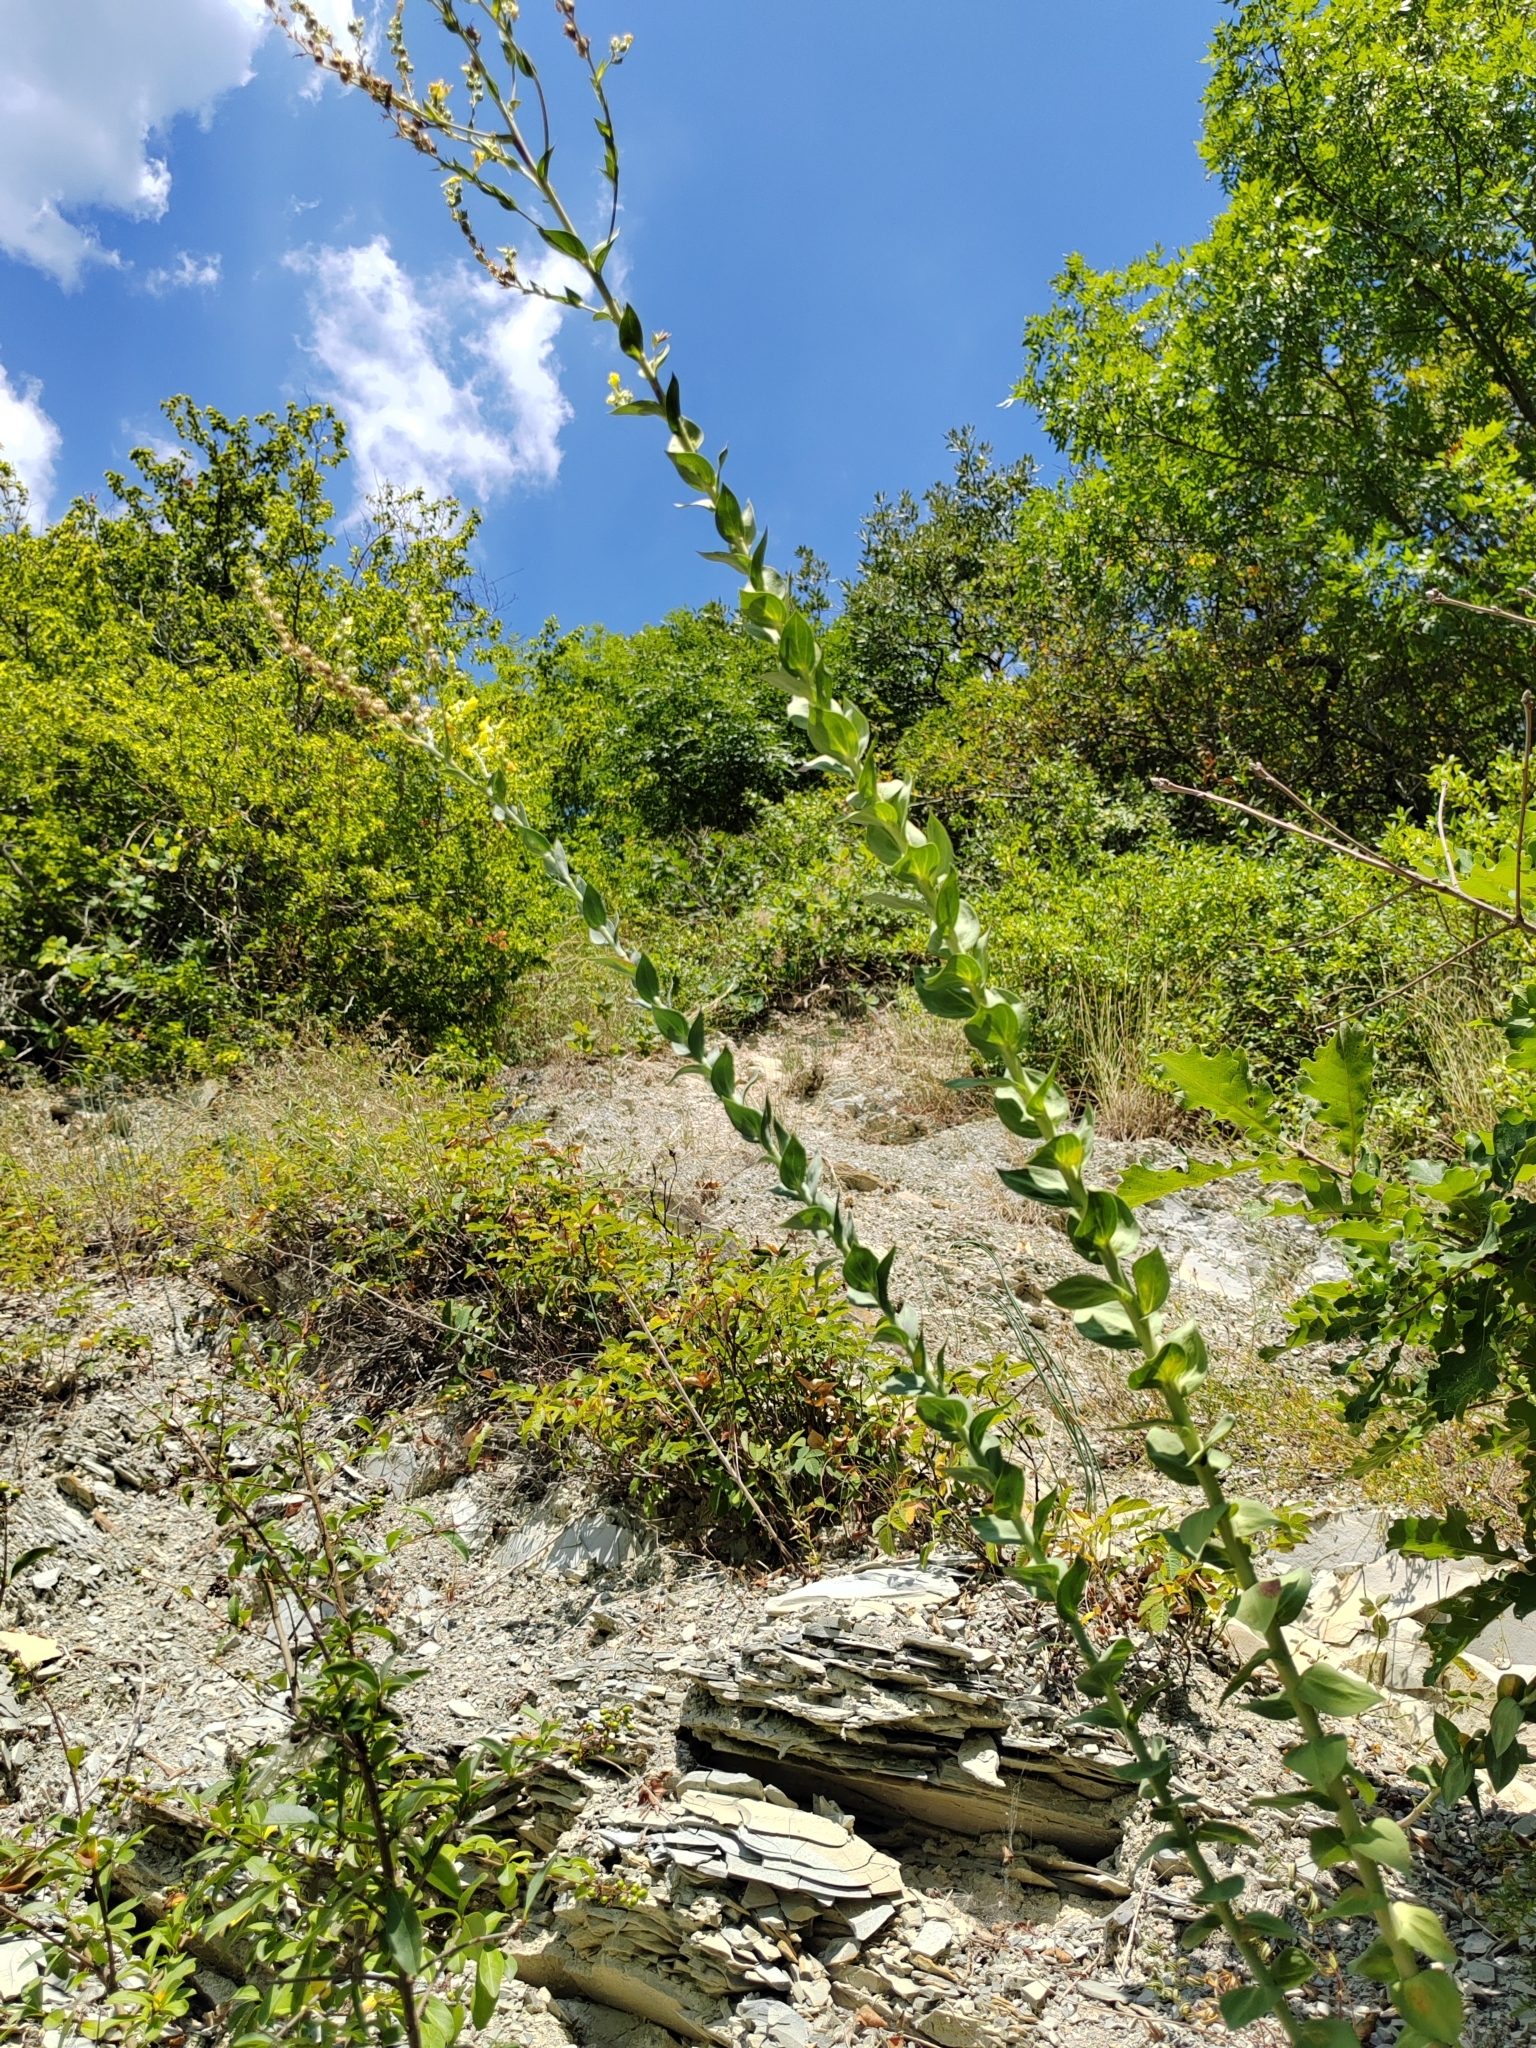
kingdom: Plantae
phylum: Tracheophyta
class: Magnoliopsida
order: Lamiales
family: Plantaginaceae
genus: Linaria
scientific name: Linaria genistifolia
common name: Broomleaf toadflax
